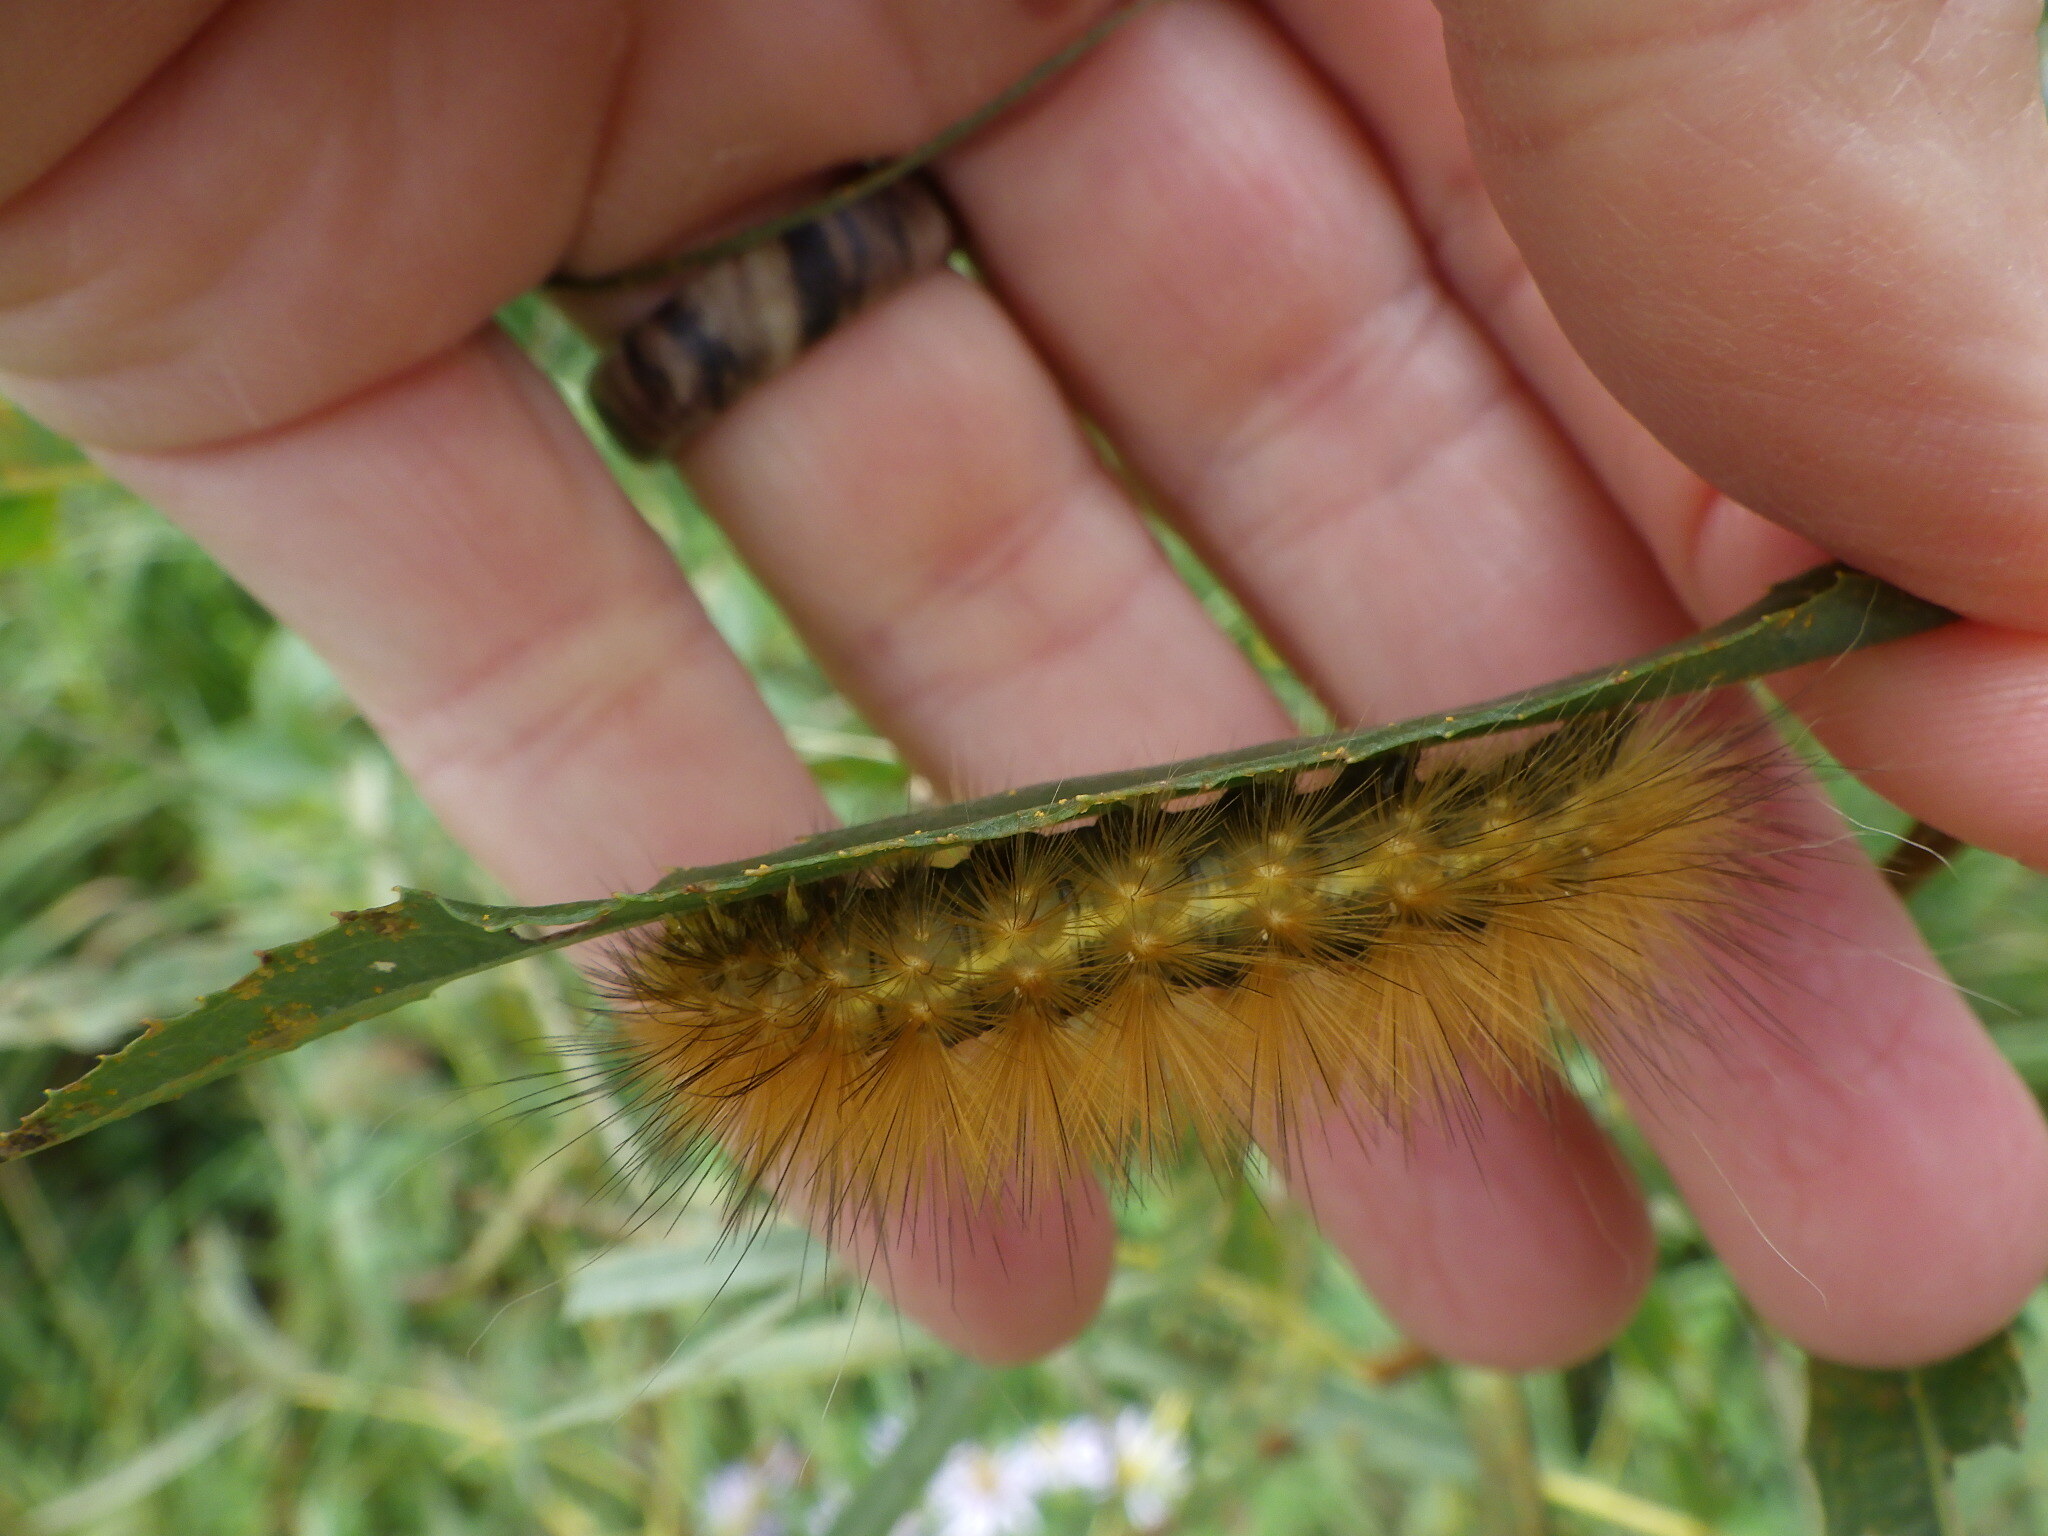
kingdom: Animalia
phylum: Arthropoda
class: Insecta
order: Lepidoptera
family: Erebidae
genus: Spilosoma
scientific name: Spilosoma virginica
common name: Virginia tiger moth
